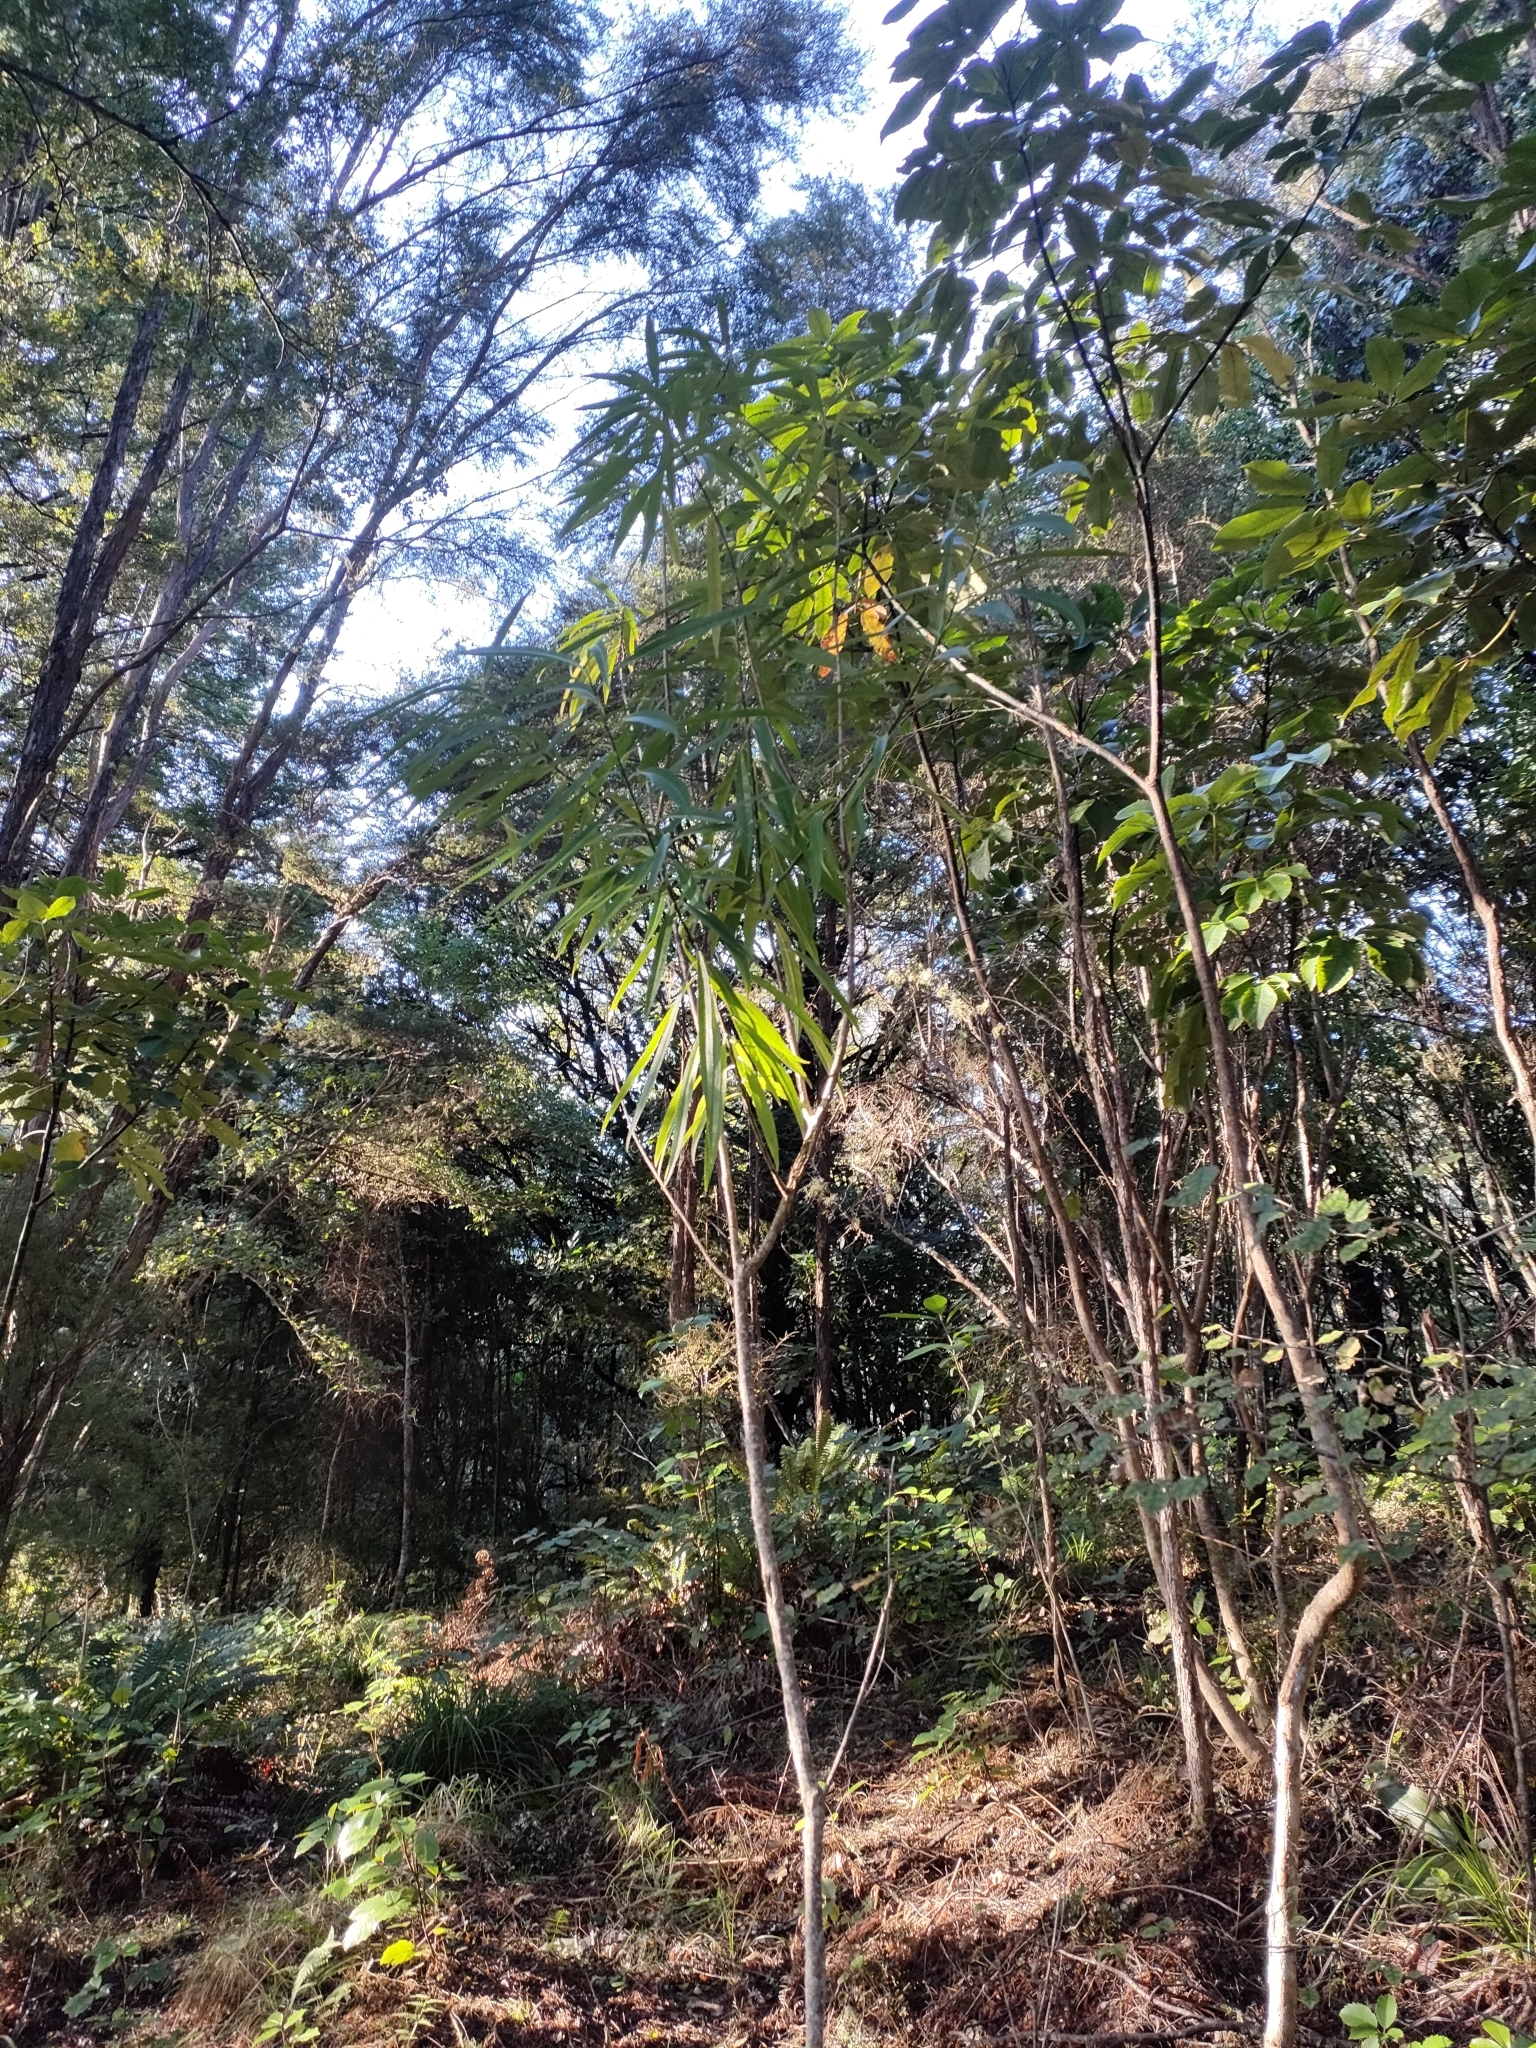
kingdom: Plantae
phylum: Tracheophyta
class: Magnoliopsida
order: Malpighiales
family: Violaceae
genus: Melicytus
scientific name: Melicytus lanceolatus
